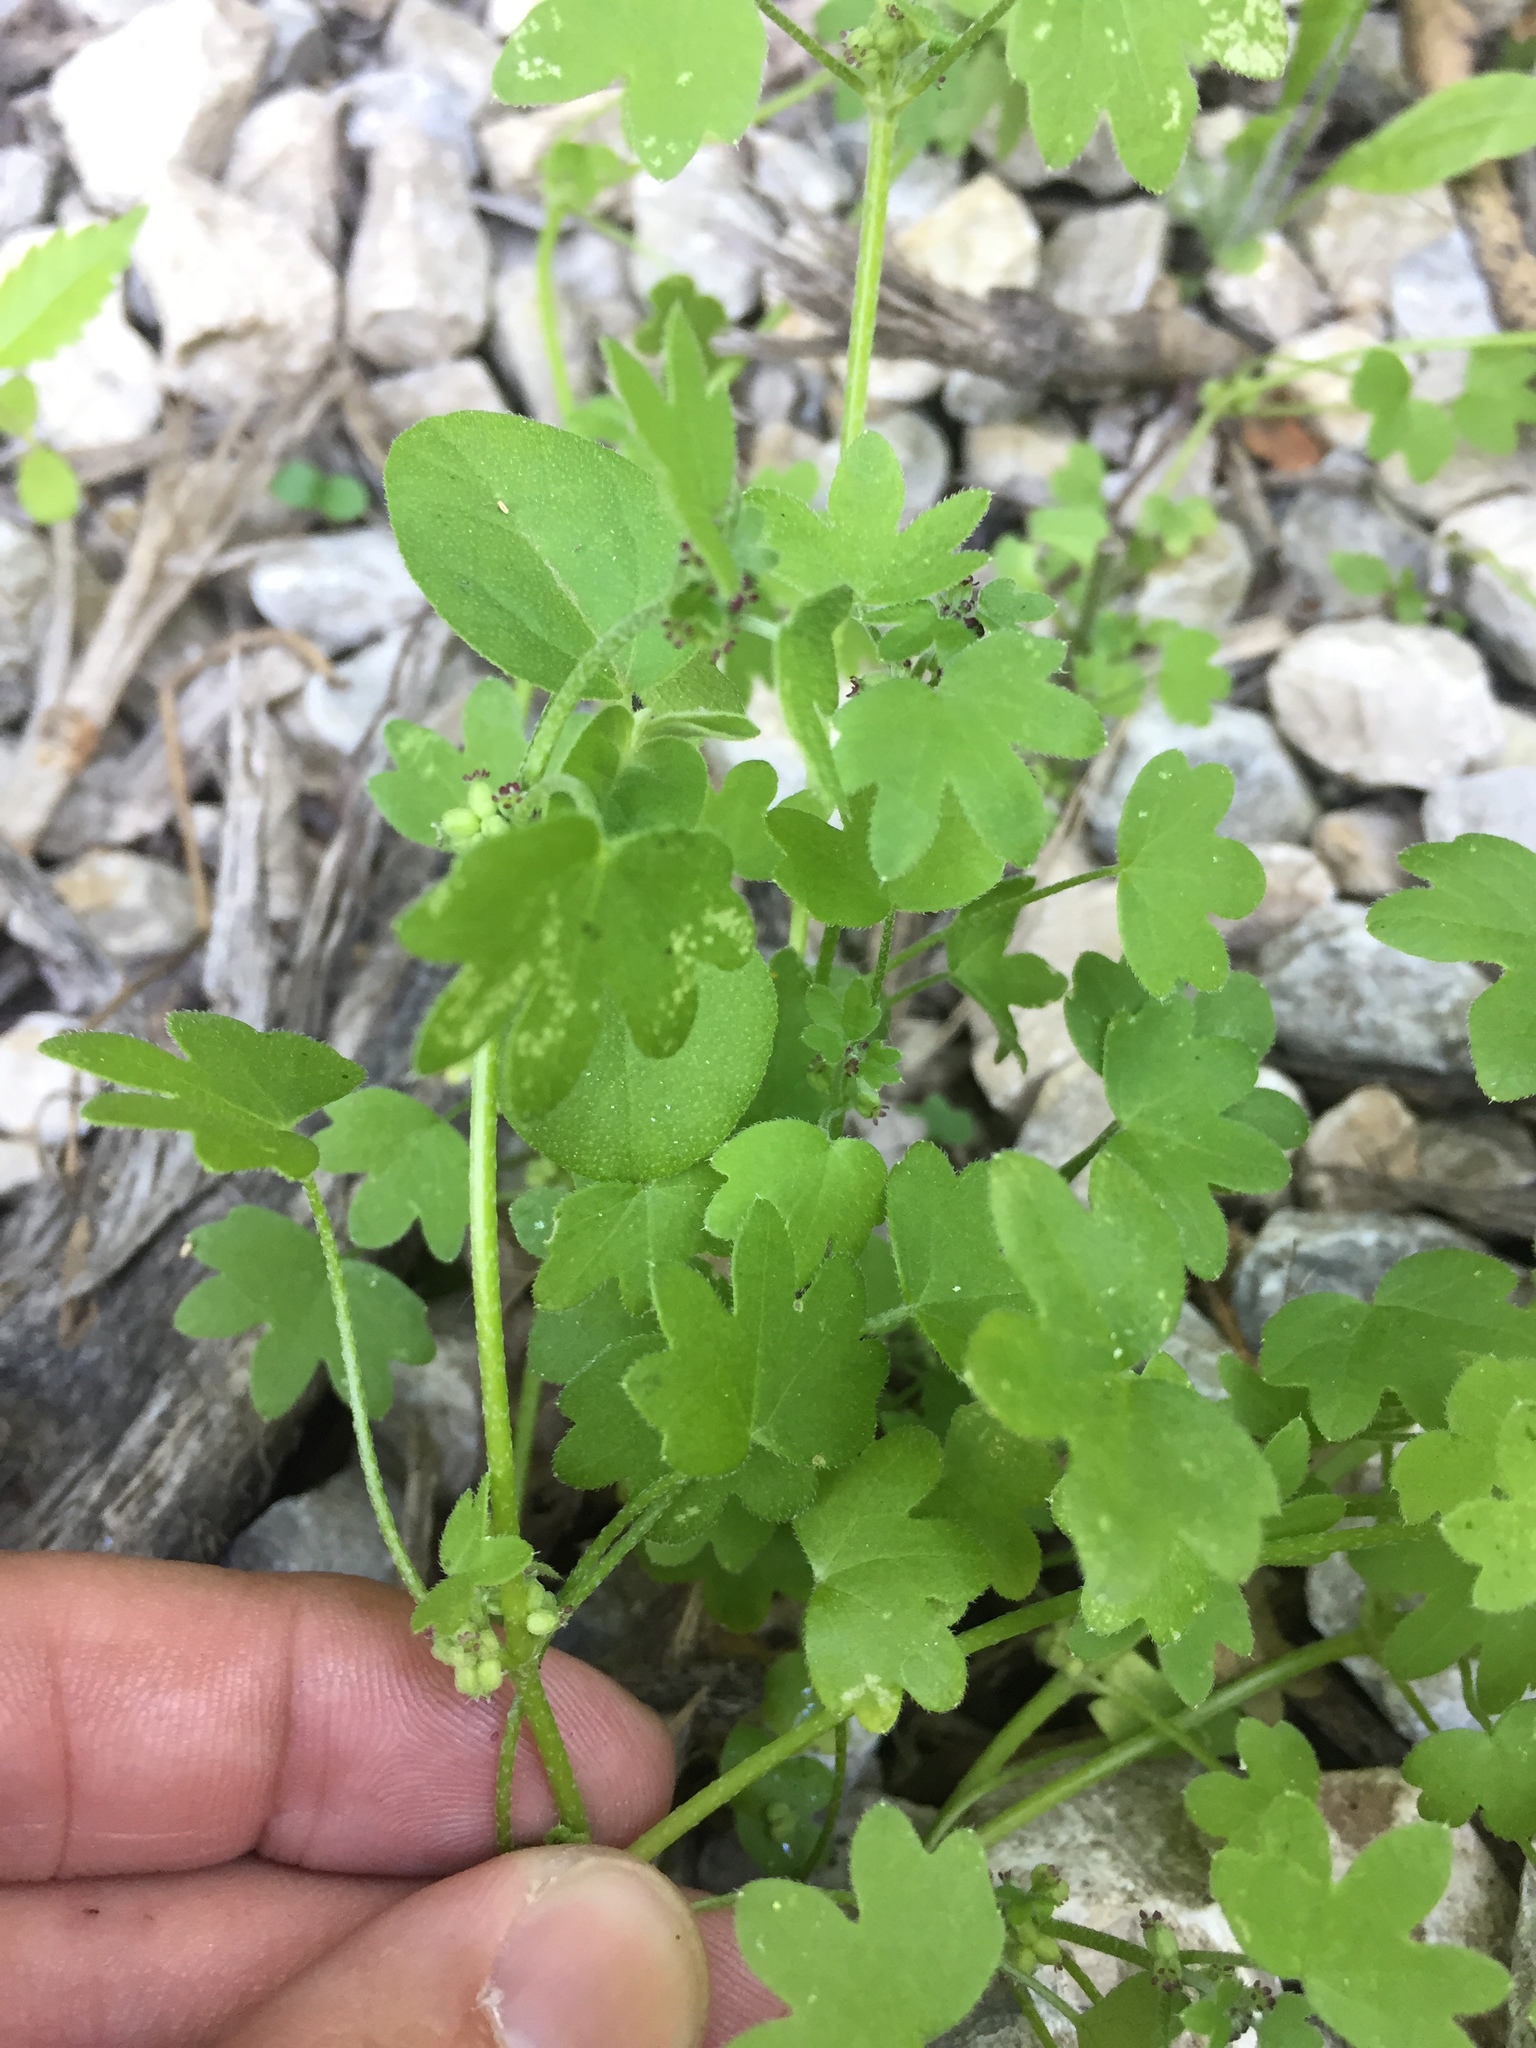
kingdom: Plantae
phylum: Tracheophyta
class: Magnoliopsida
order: Apiales
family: Apiaceae
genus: Bowlesia
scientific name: Bowlesia incana
